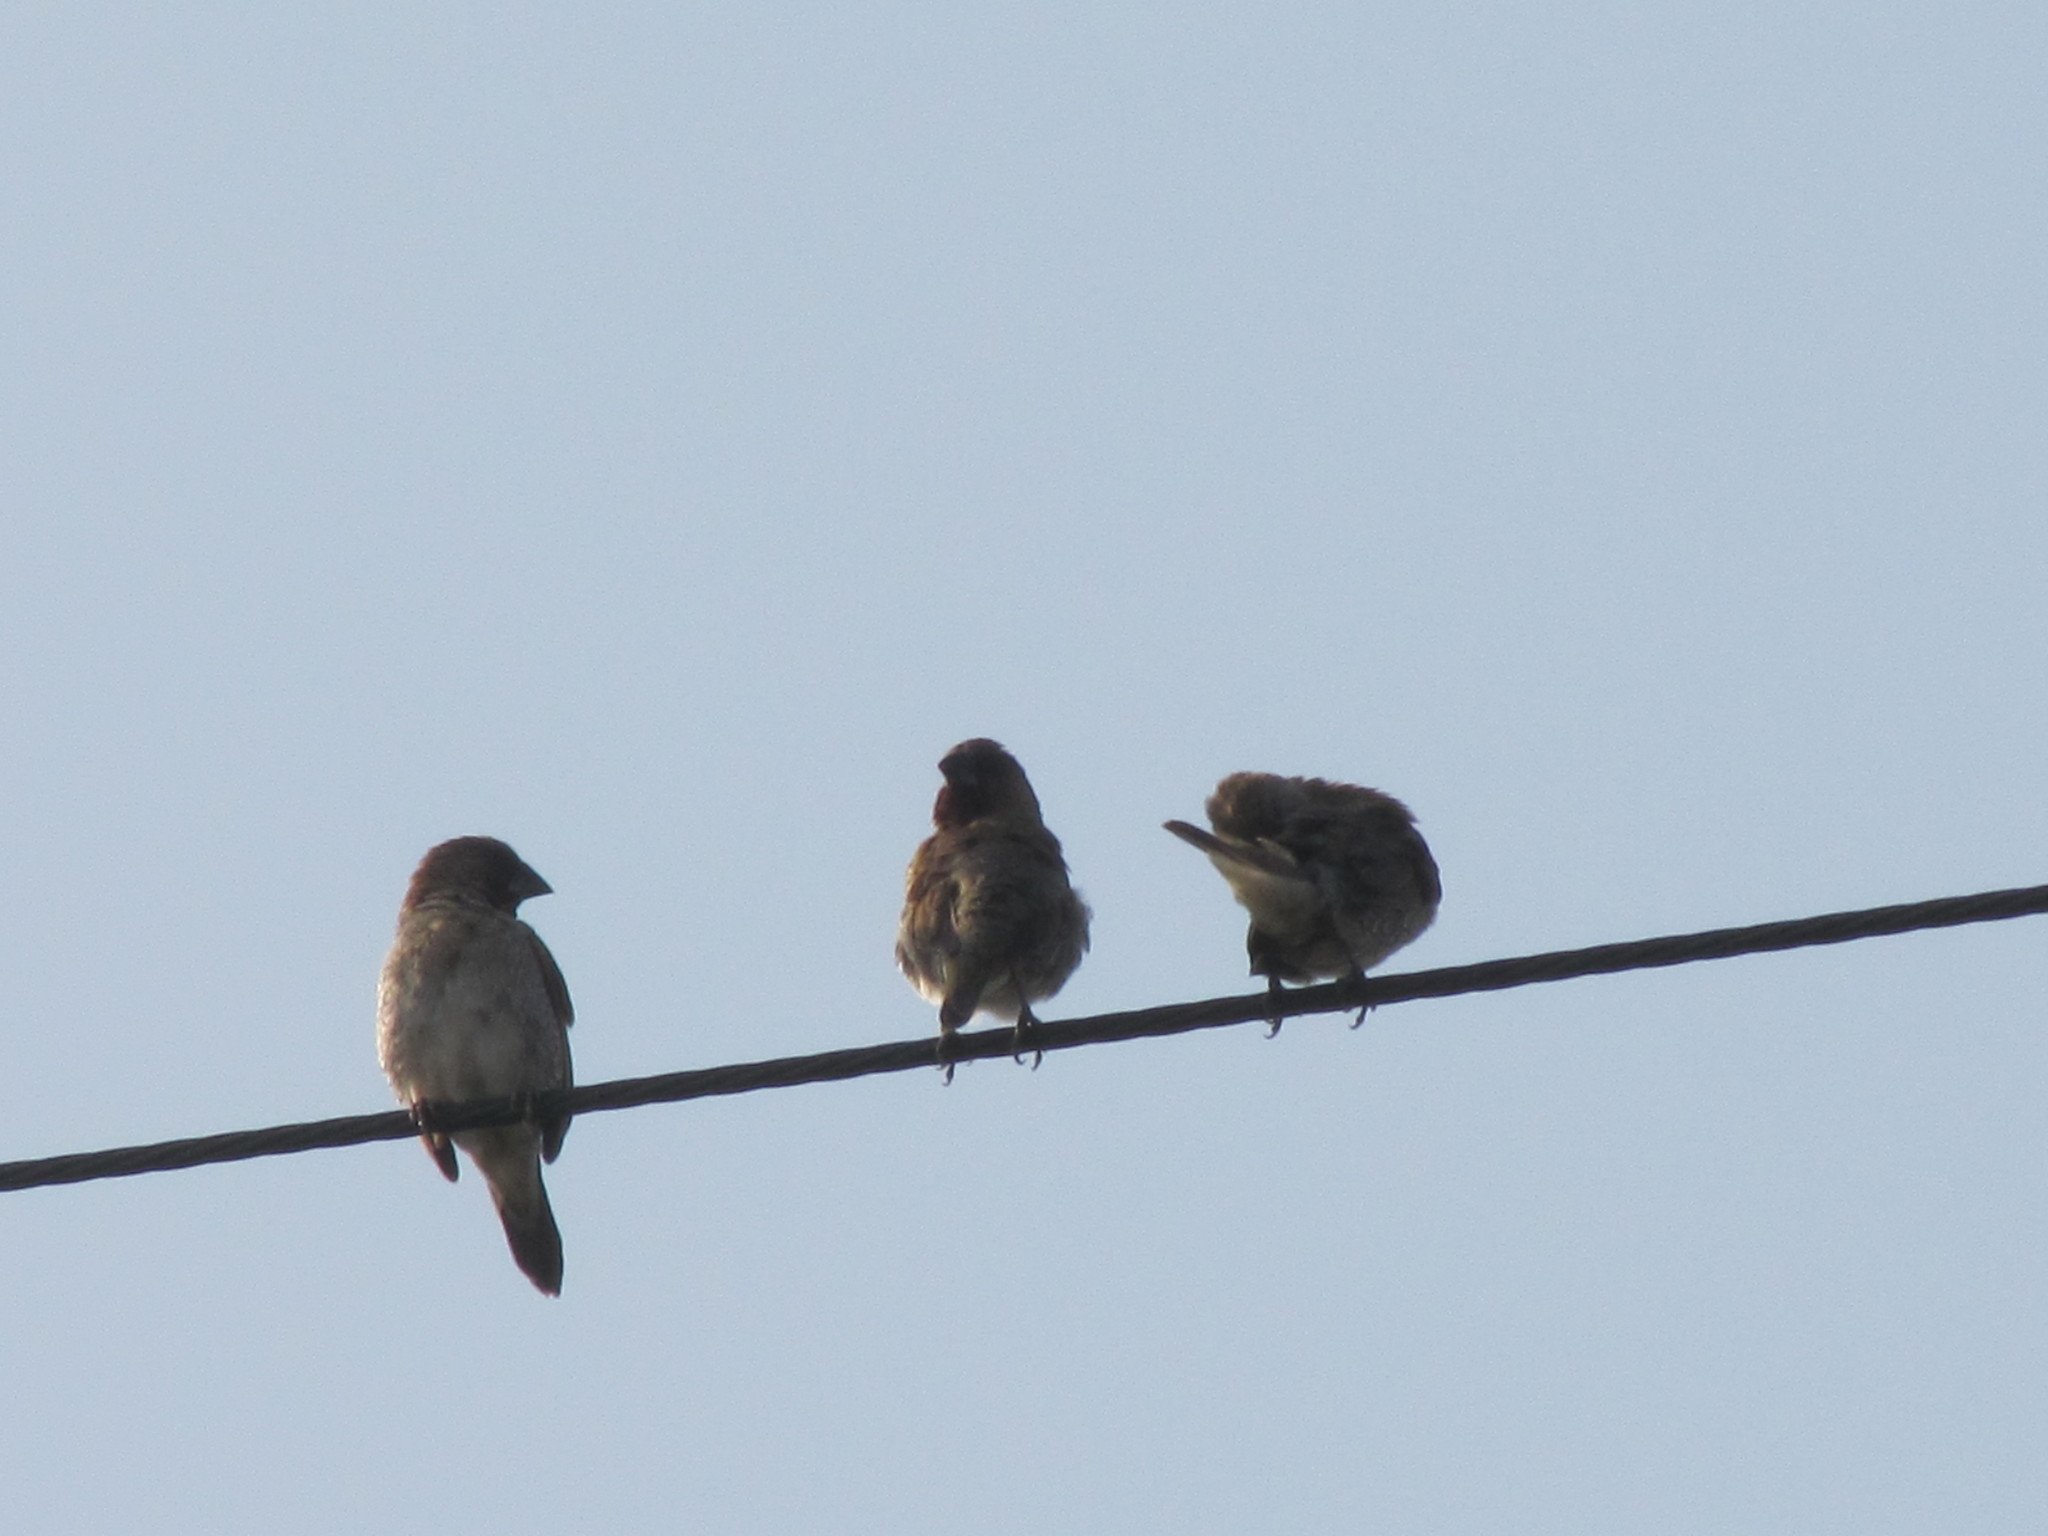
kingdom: Animalia
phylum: Chordata
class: Aves
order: Passeriformes
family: Estrildidae
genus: Lonchura
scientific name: Lonchura punctulata
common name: Scaly-breasted munia
